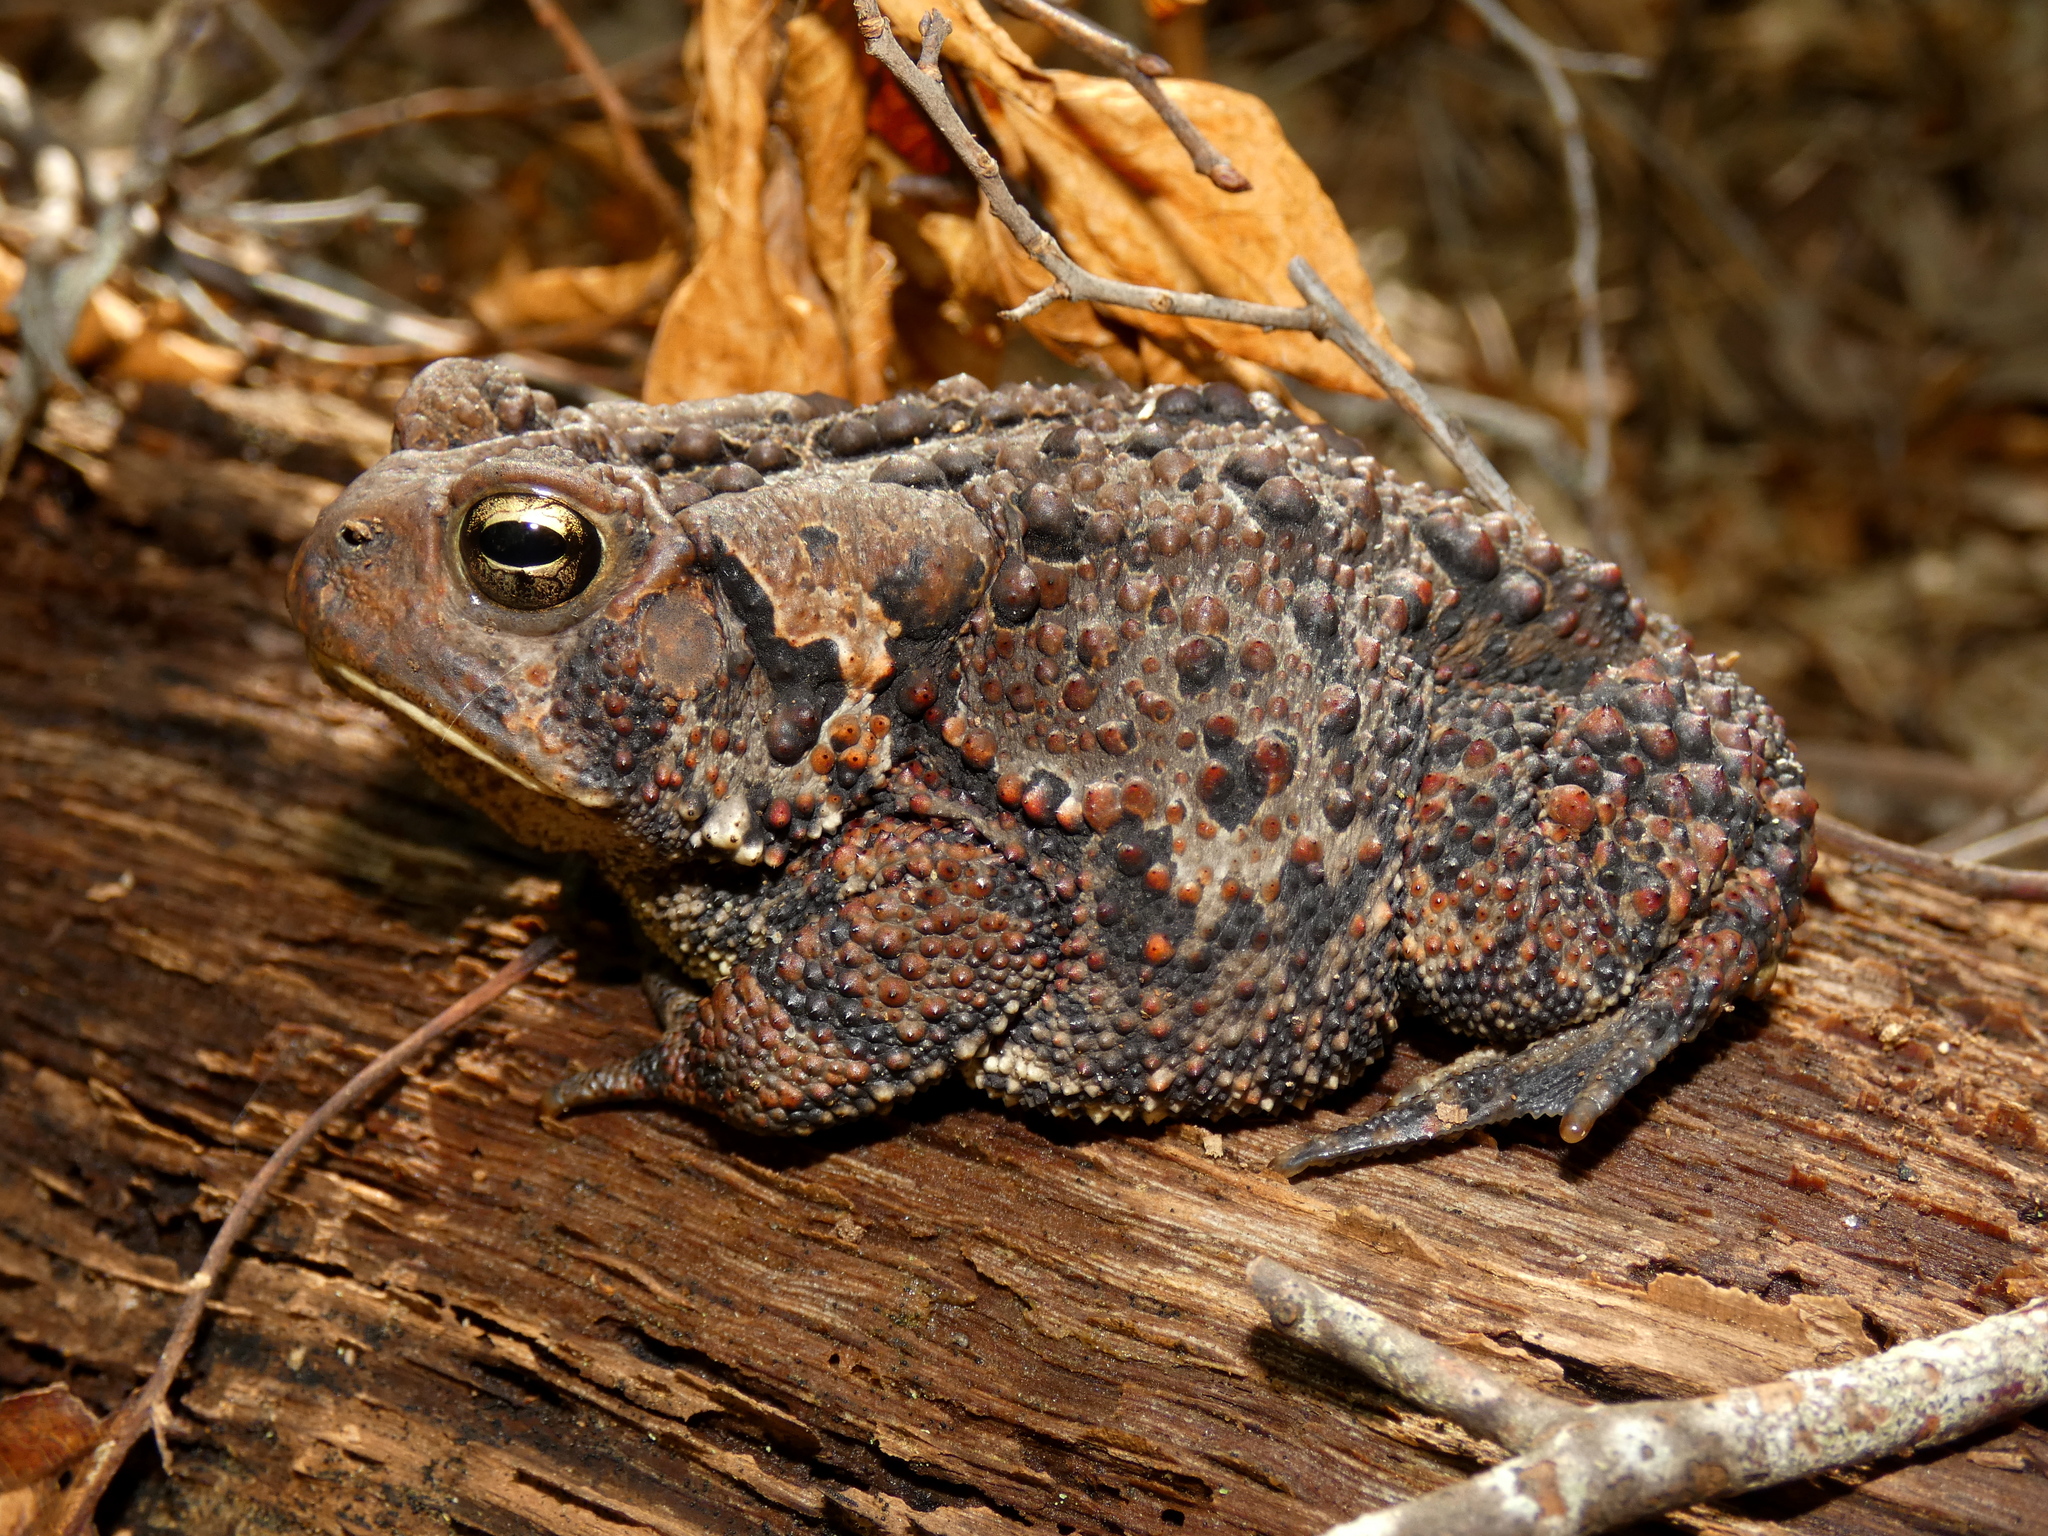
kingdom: Animalia
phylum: Chordata
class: Amphibia
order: Anura
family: Bufonidae
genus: Anaxyrus
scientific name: Anaxyrus americanus
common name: American toad
